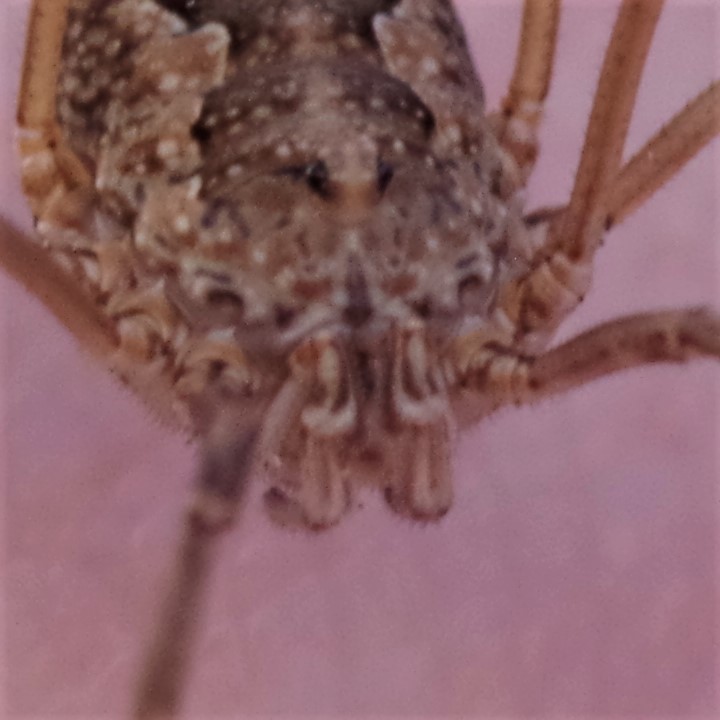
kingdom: Animalia
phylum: Arthropoda
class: Arachnida
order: Opiliones
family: Phalangiidae
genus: Phalangium
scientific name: Phalangium opilio
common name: Daddy longleg
